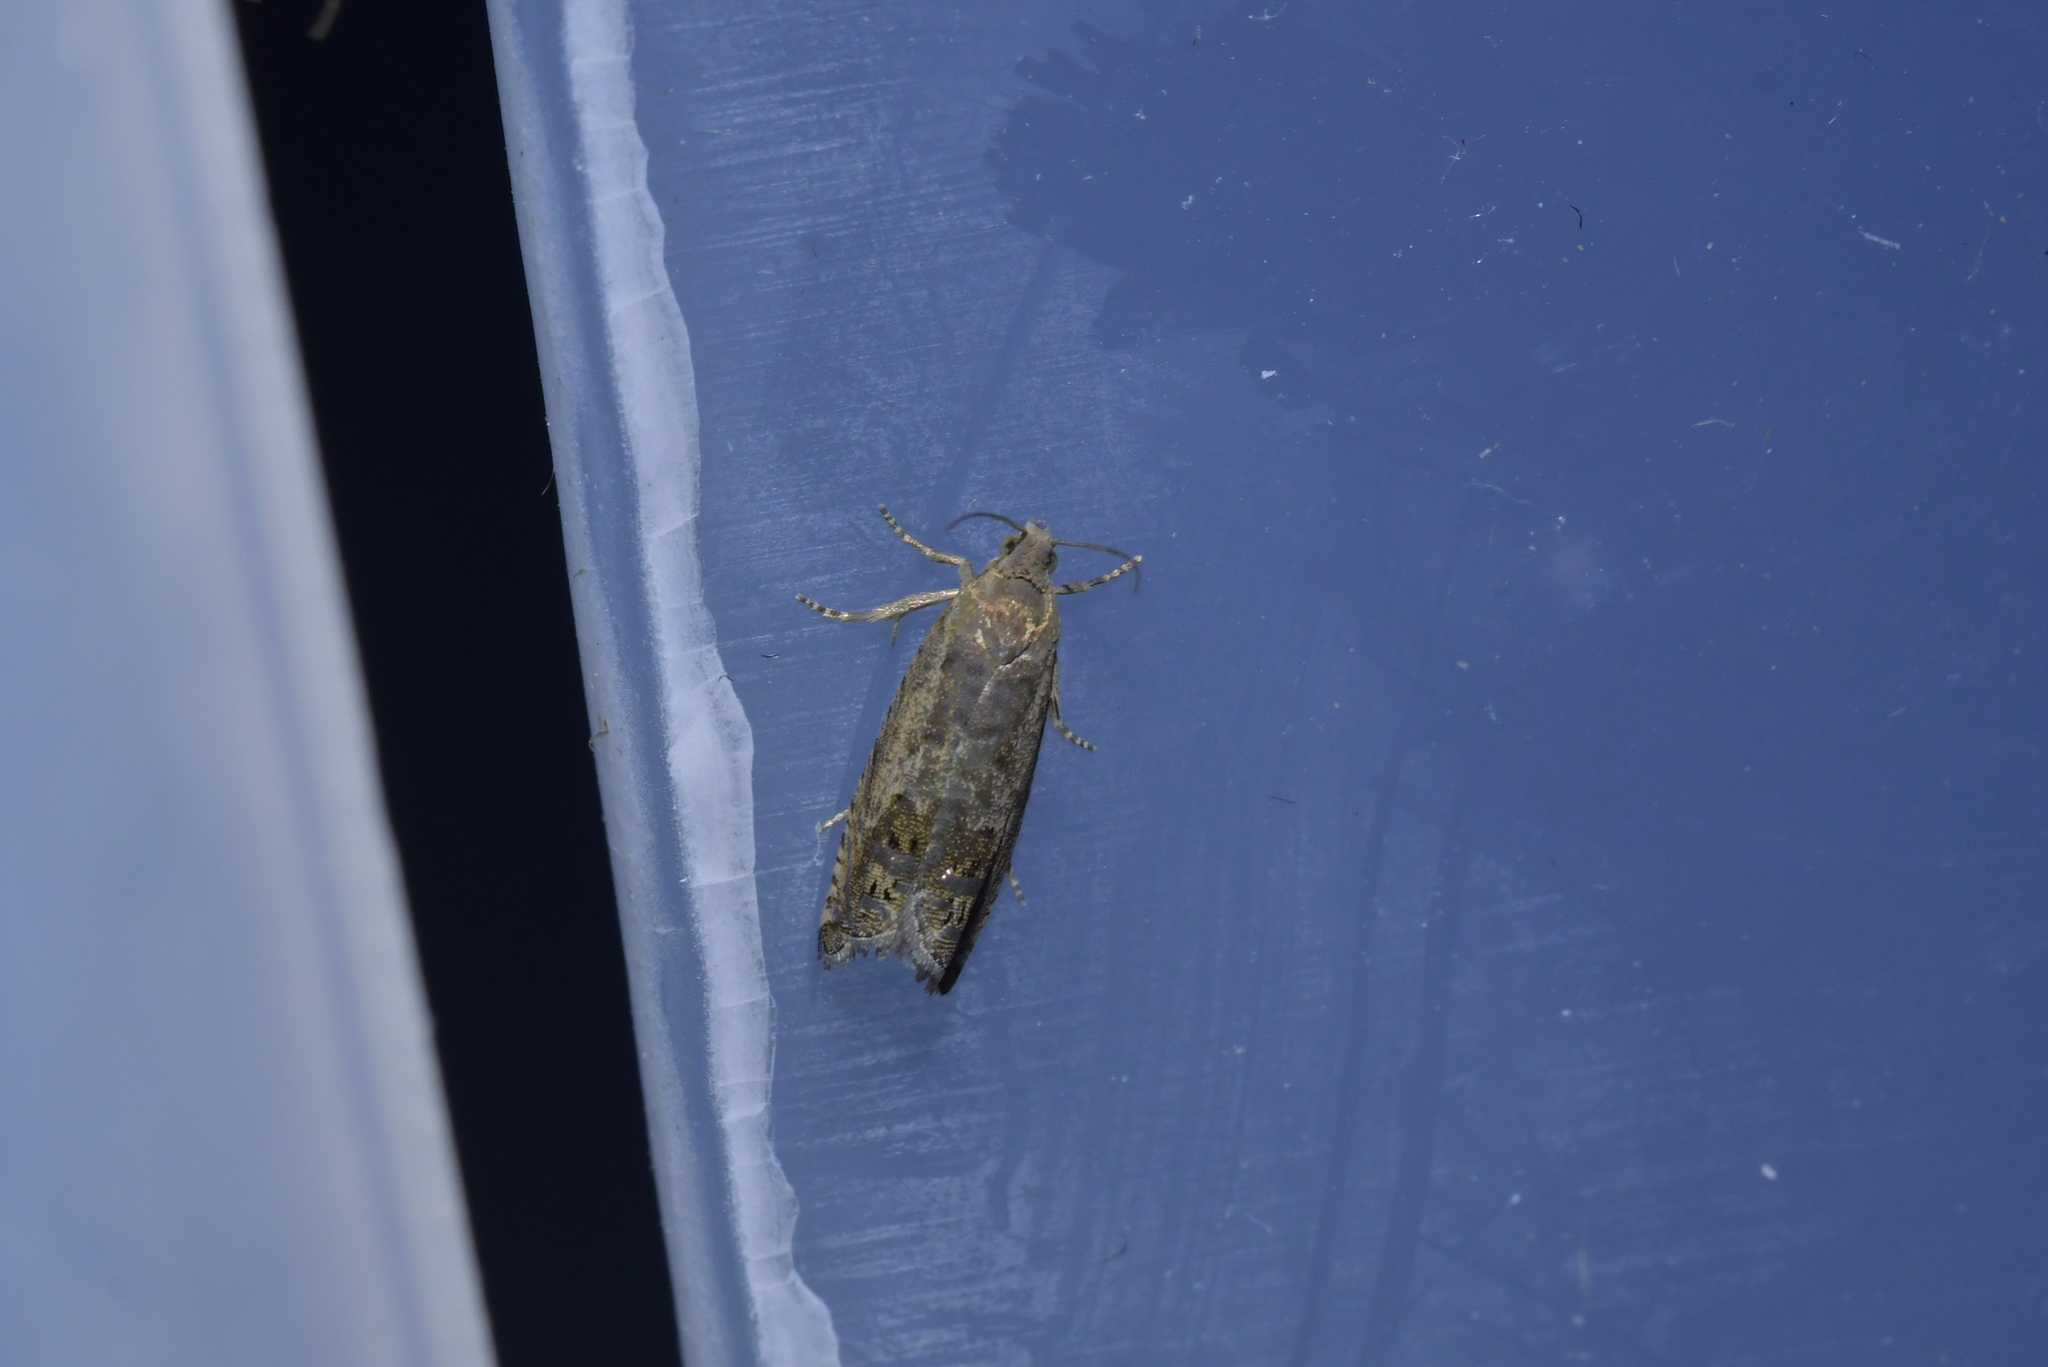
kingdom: Animalia
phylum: Arthropoda
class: Insecta
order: Lepidoptera
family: Tortricidae
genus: Cydia
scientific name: Cydia succedana
